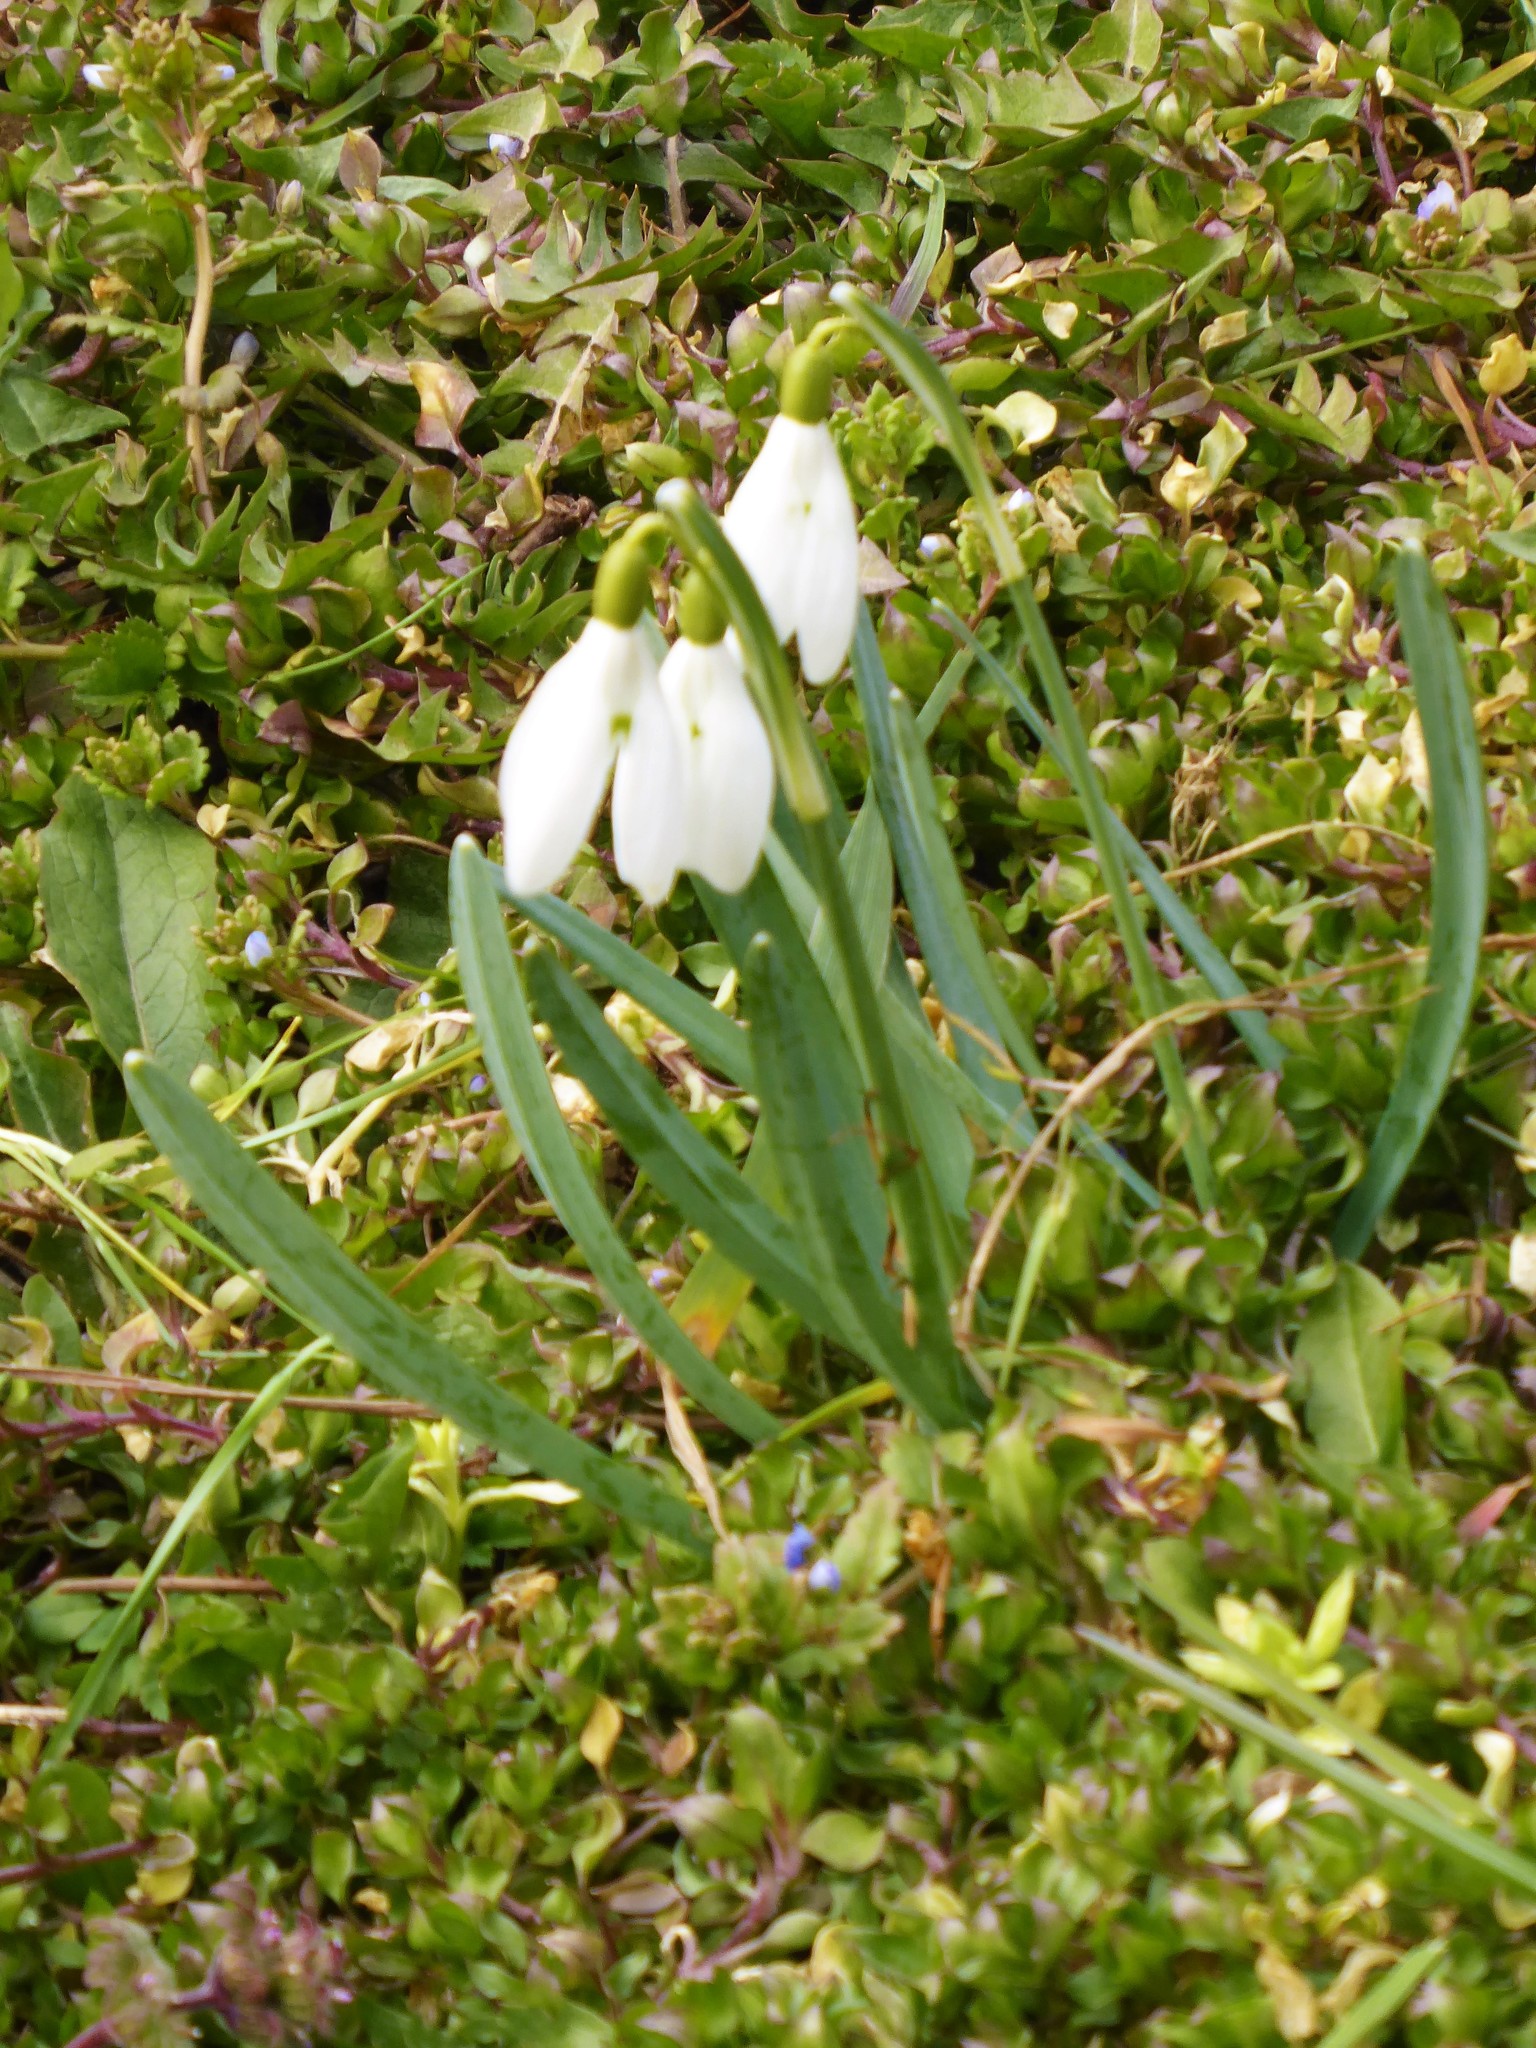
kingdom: Plantae
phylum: Tracheophyta
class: Liliopsida
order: Asparagales
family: Amaryllidaceae
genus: Galanthus
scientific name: Galanthus nivalis
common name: Snowdrop
